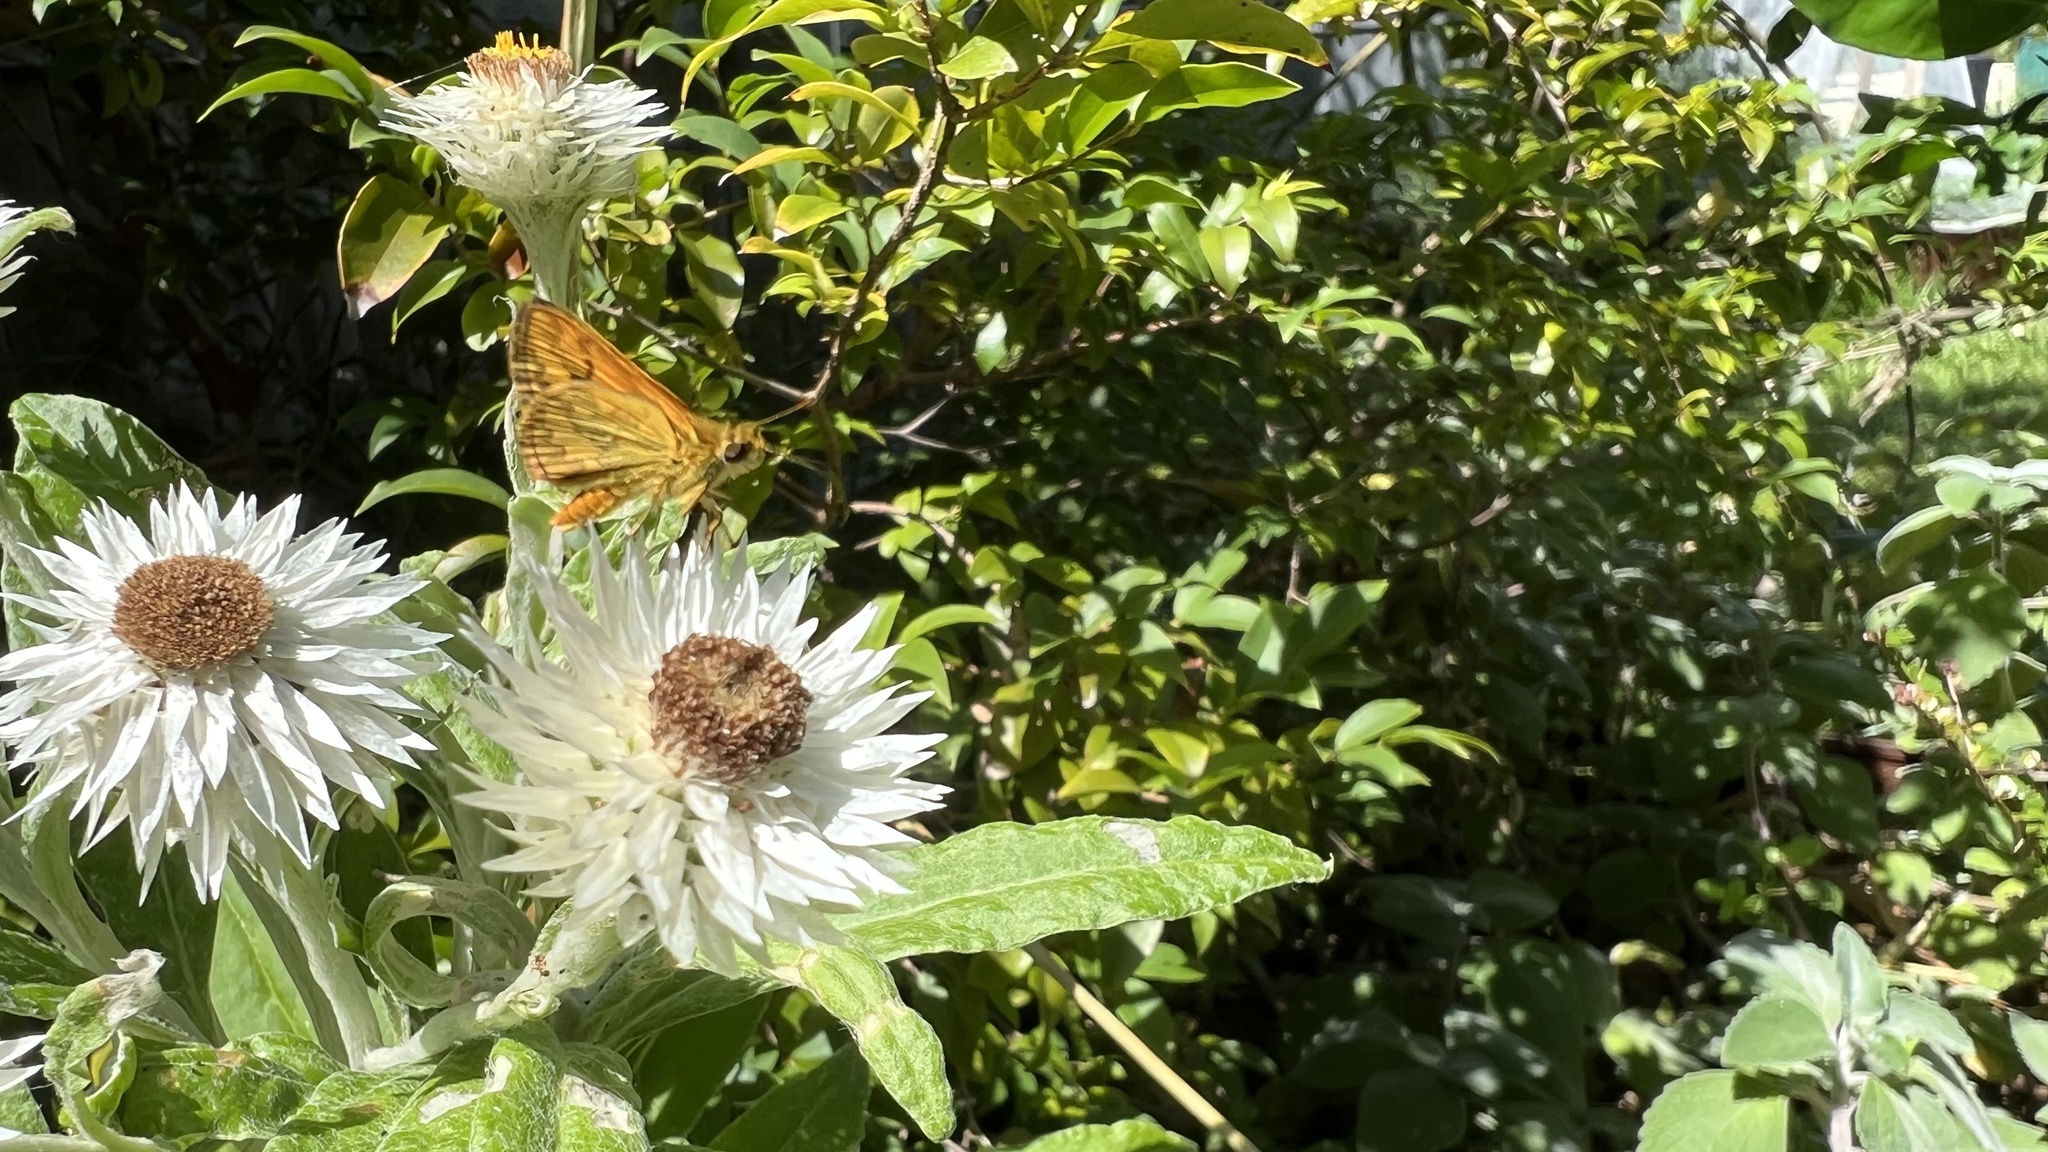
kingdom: Animalia
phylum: Arthropoda
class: Insecta
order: Lepidoptera
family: Hesperiidae
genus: Suniana
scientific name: Suniana sunias
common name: Wide-brand grass-dart
